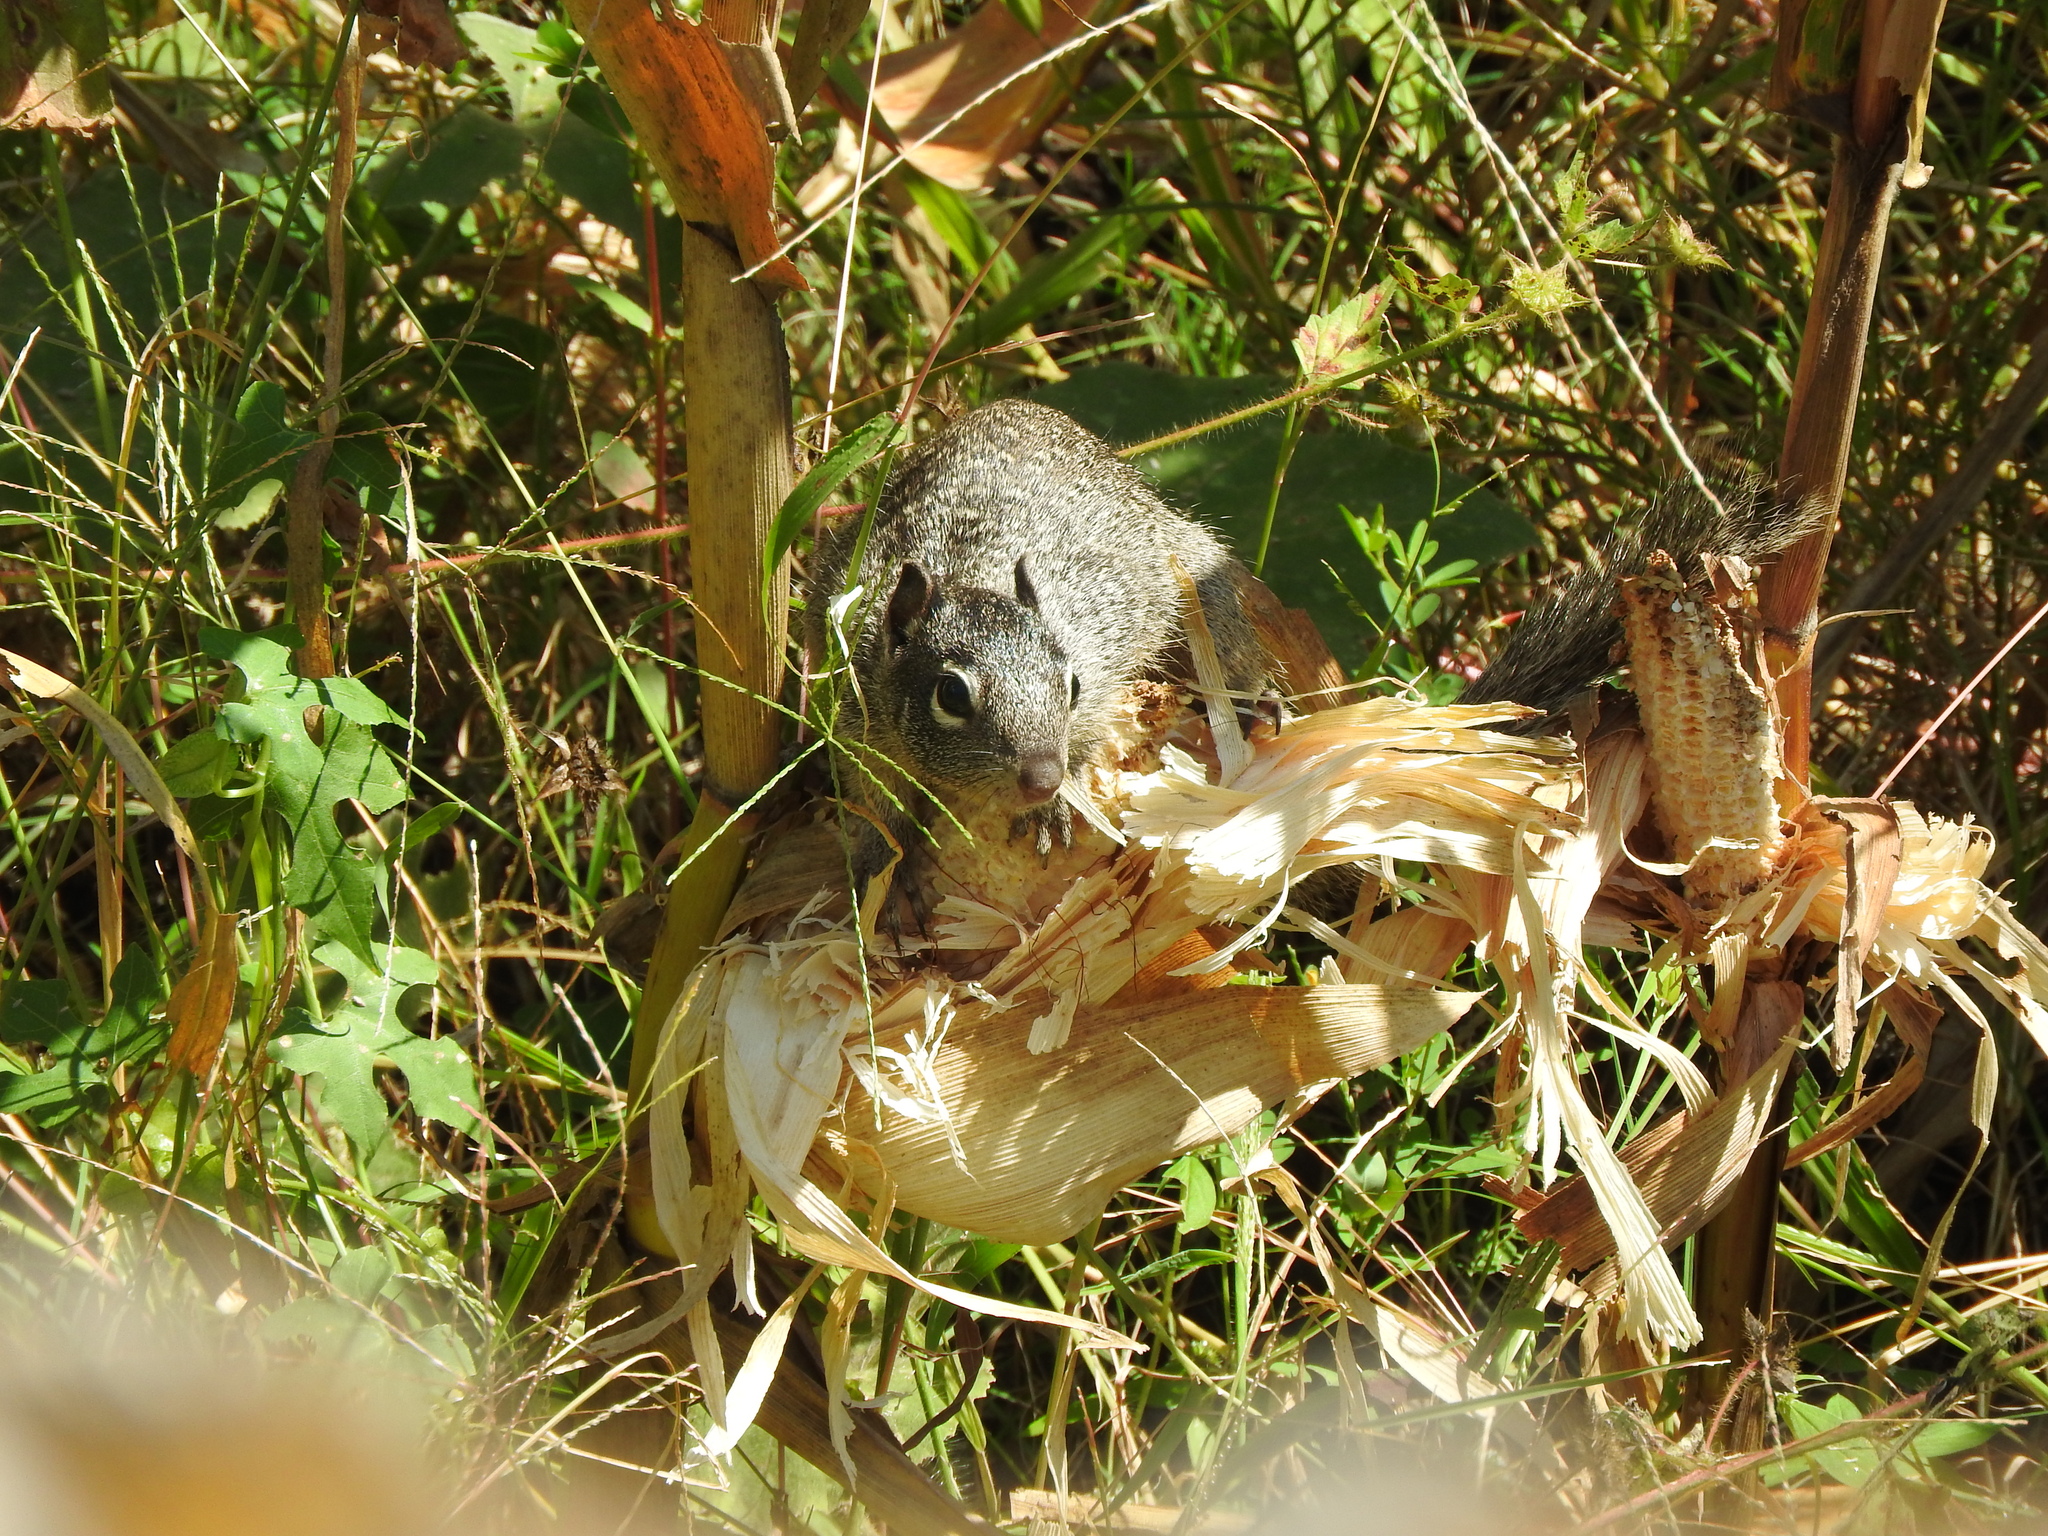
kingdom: Animalia
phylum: Chordata
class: Mammalia
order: Rodentia
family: Sciuridae
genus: Otospermophilus
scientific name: Otospermophilus variegatus
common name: Rock squirrel
